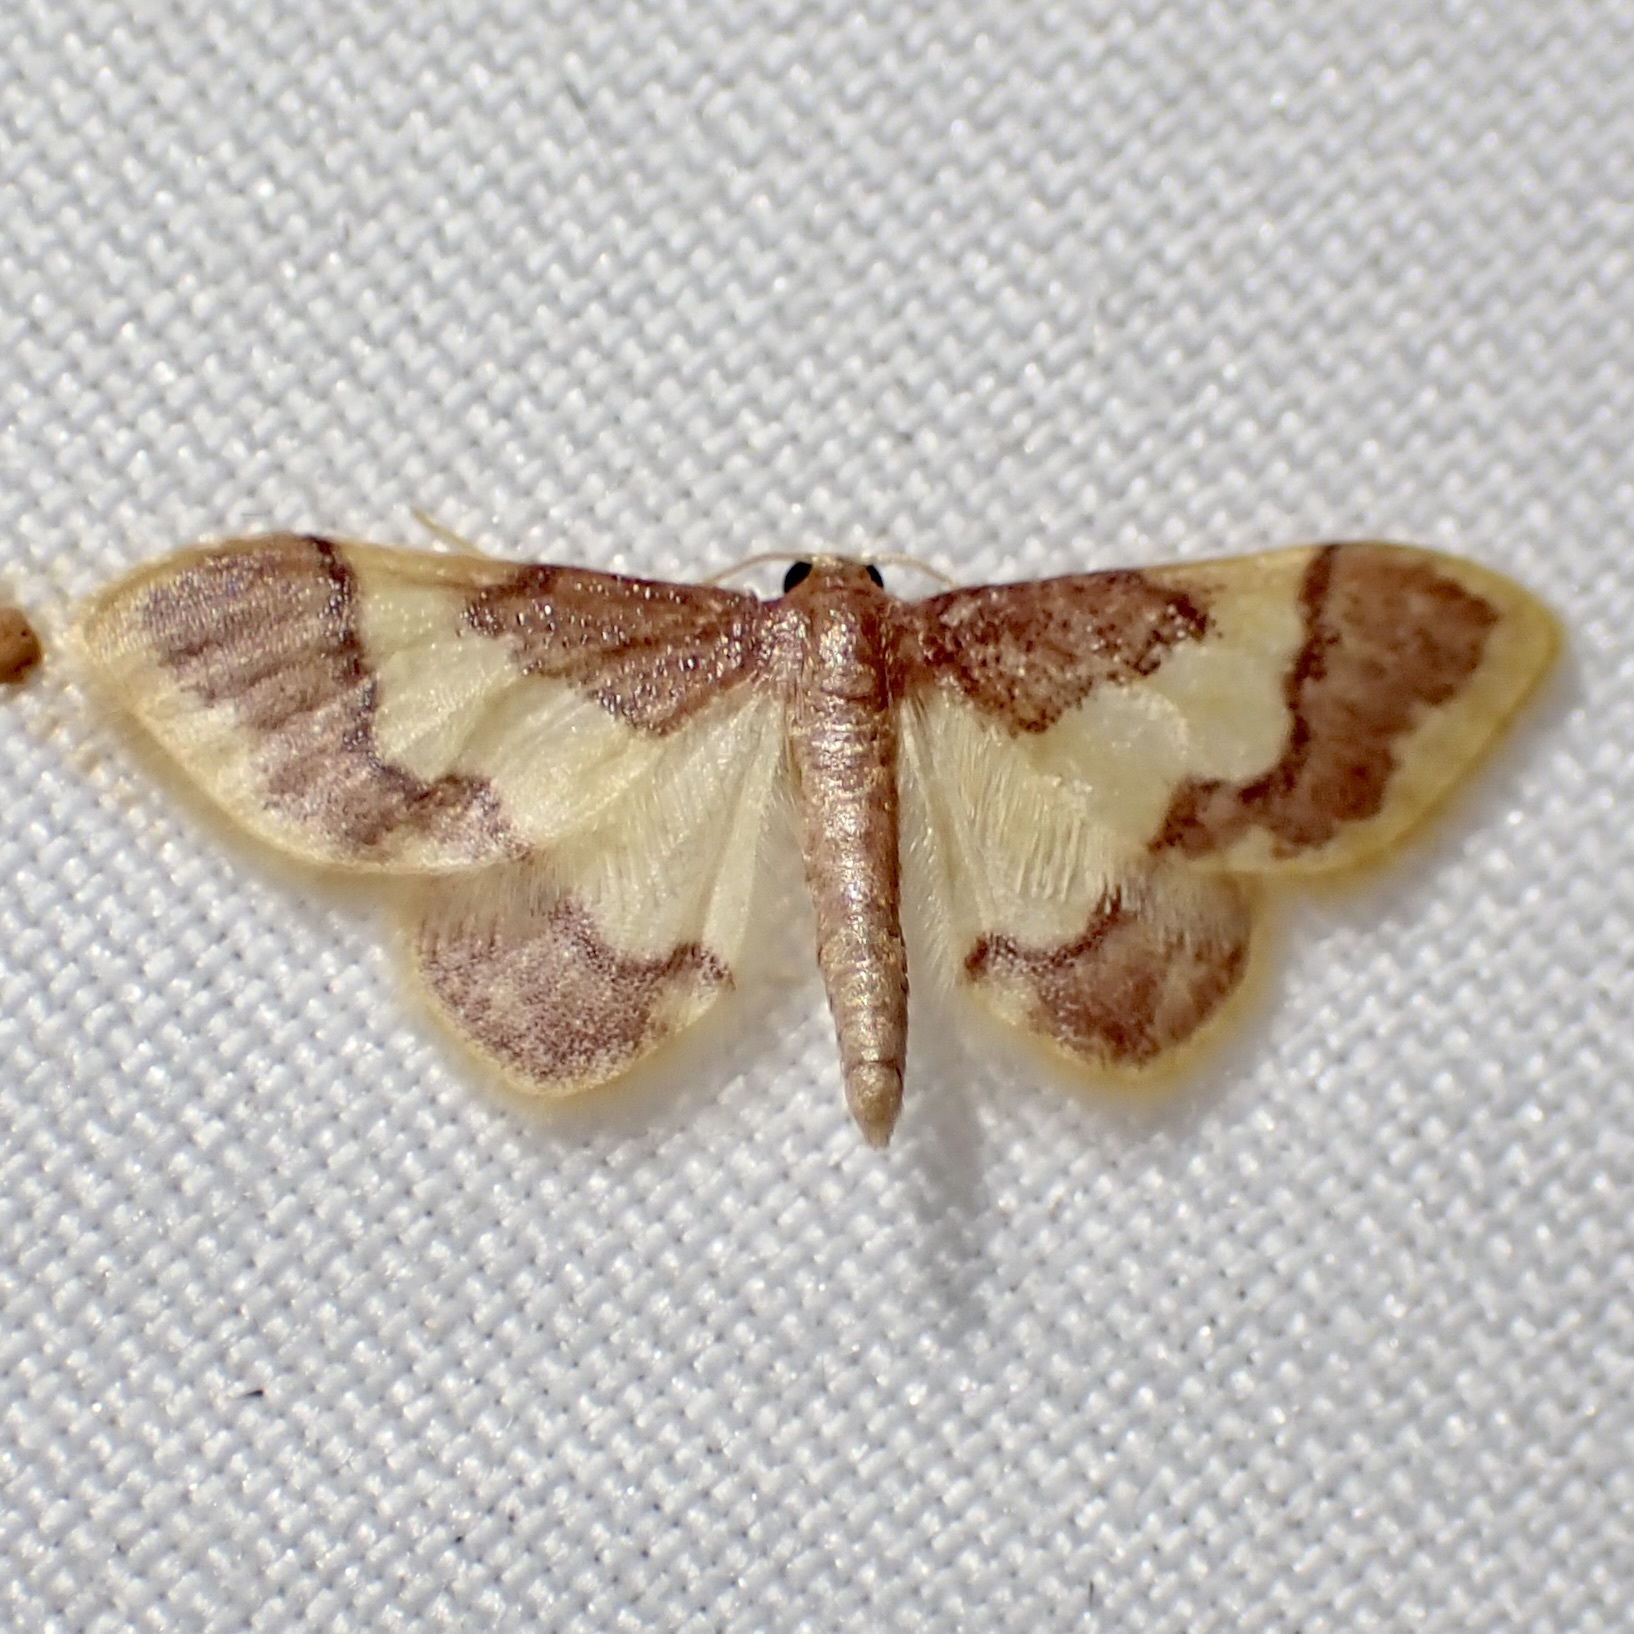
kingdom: Animalia
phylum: Arthropoda
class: Insecta
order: Lepidoptera
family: Geometridae
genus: Idaea
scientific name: Idaea basinta
